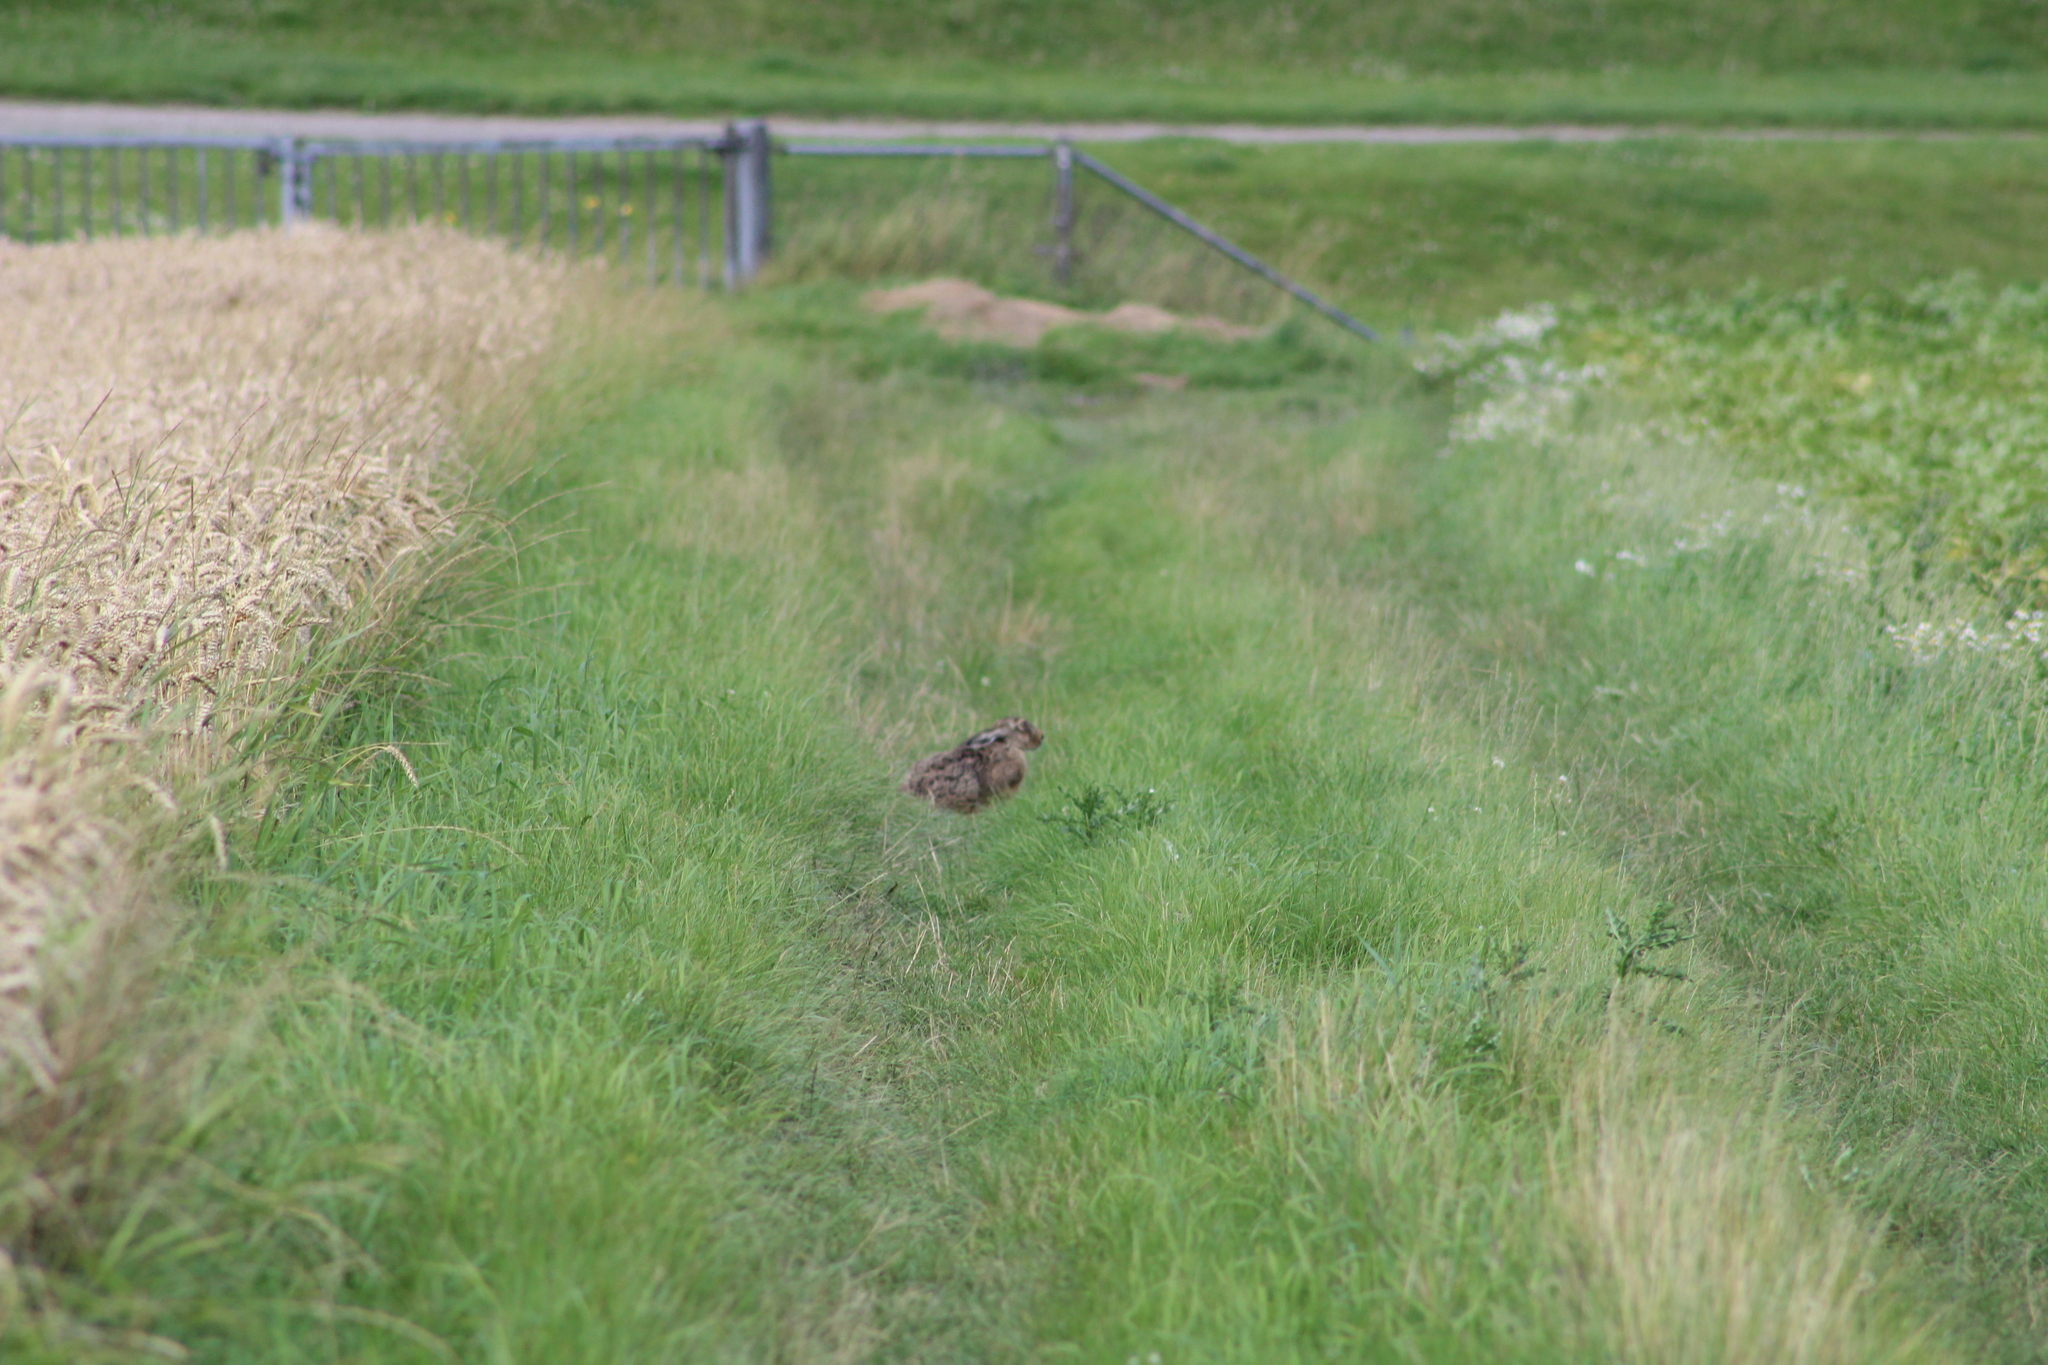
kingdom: Animalia
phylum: Chordata
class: Mammalia
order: Lagomorpha
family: Leporidae
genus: Lepus
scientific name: Lepus europaeus
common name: European hare
